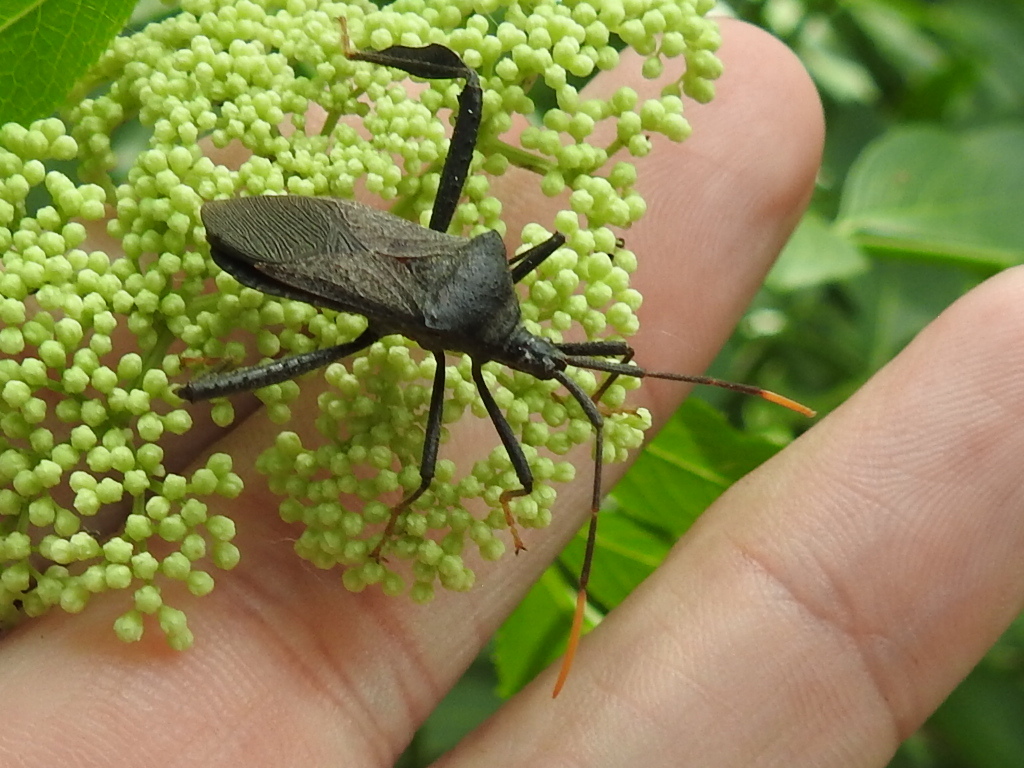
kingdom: Animalia
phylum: Arthropoda
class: Insecta
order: Hemiptera
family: Coreidae
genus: Acanthocephala
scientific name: Acanthocephala terminalis
